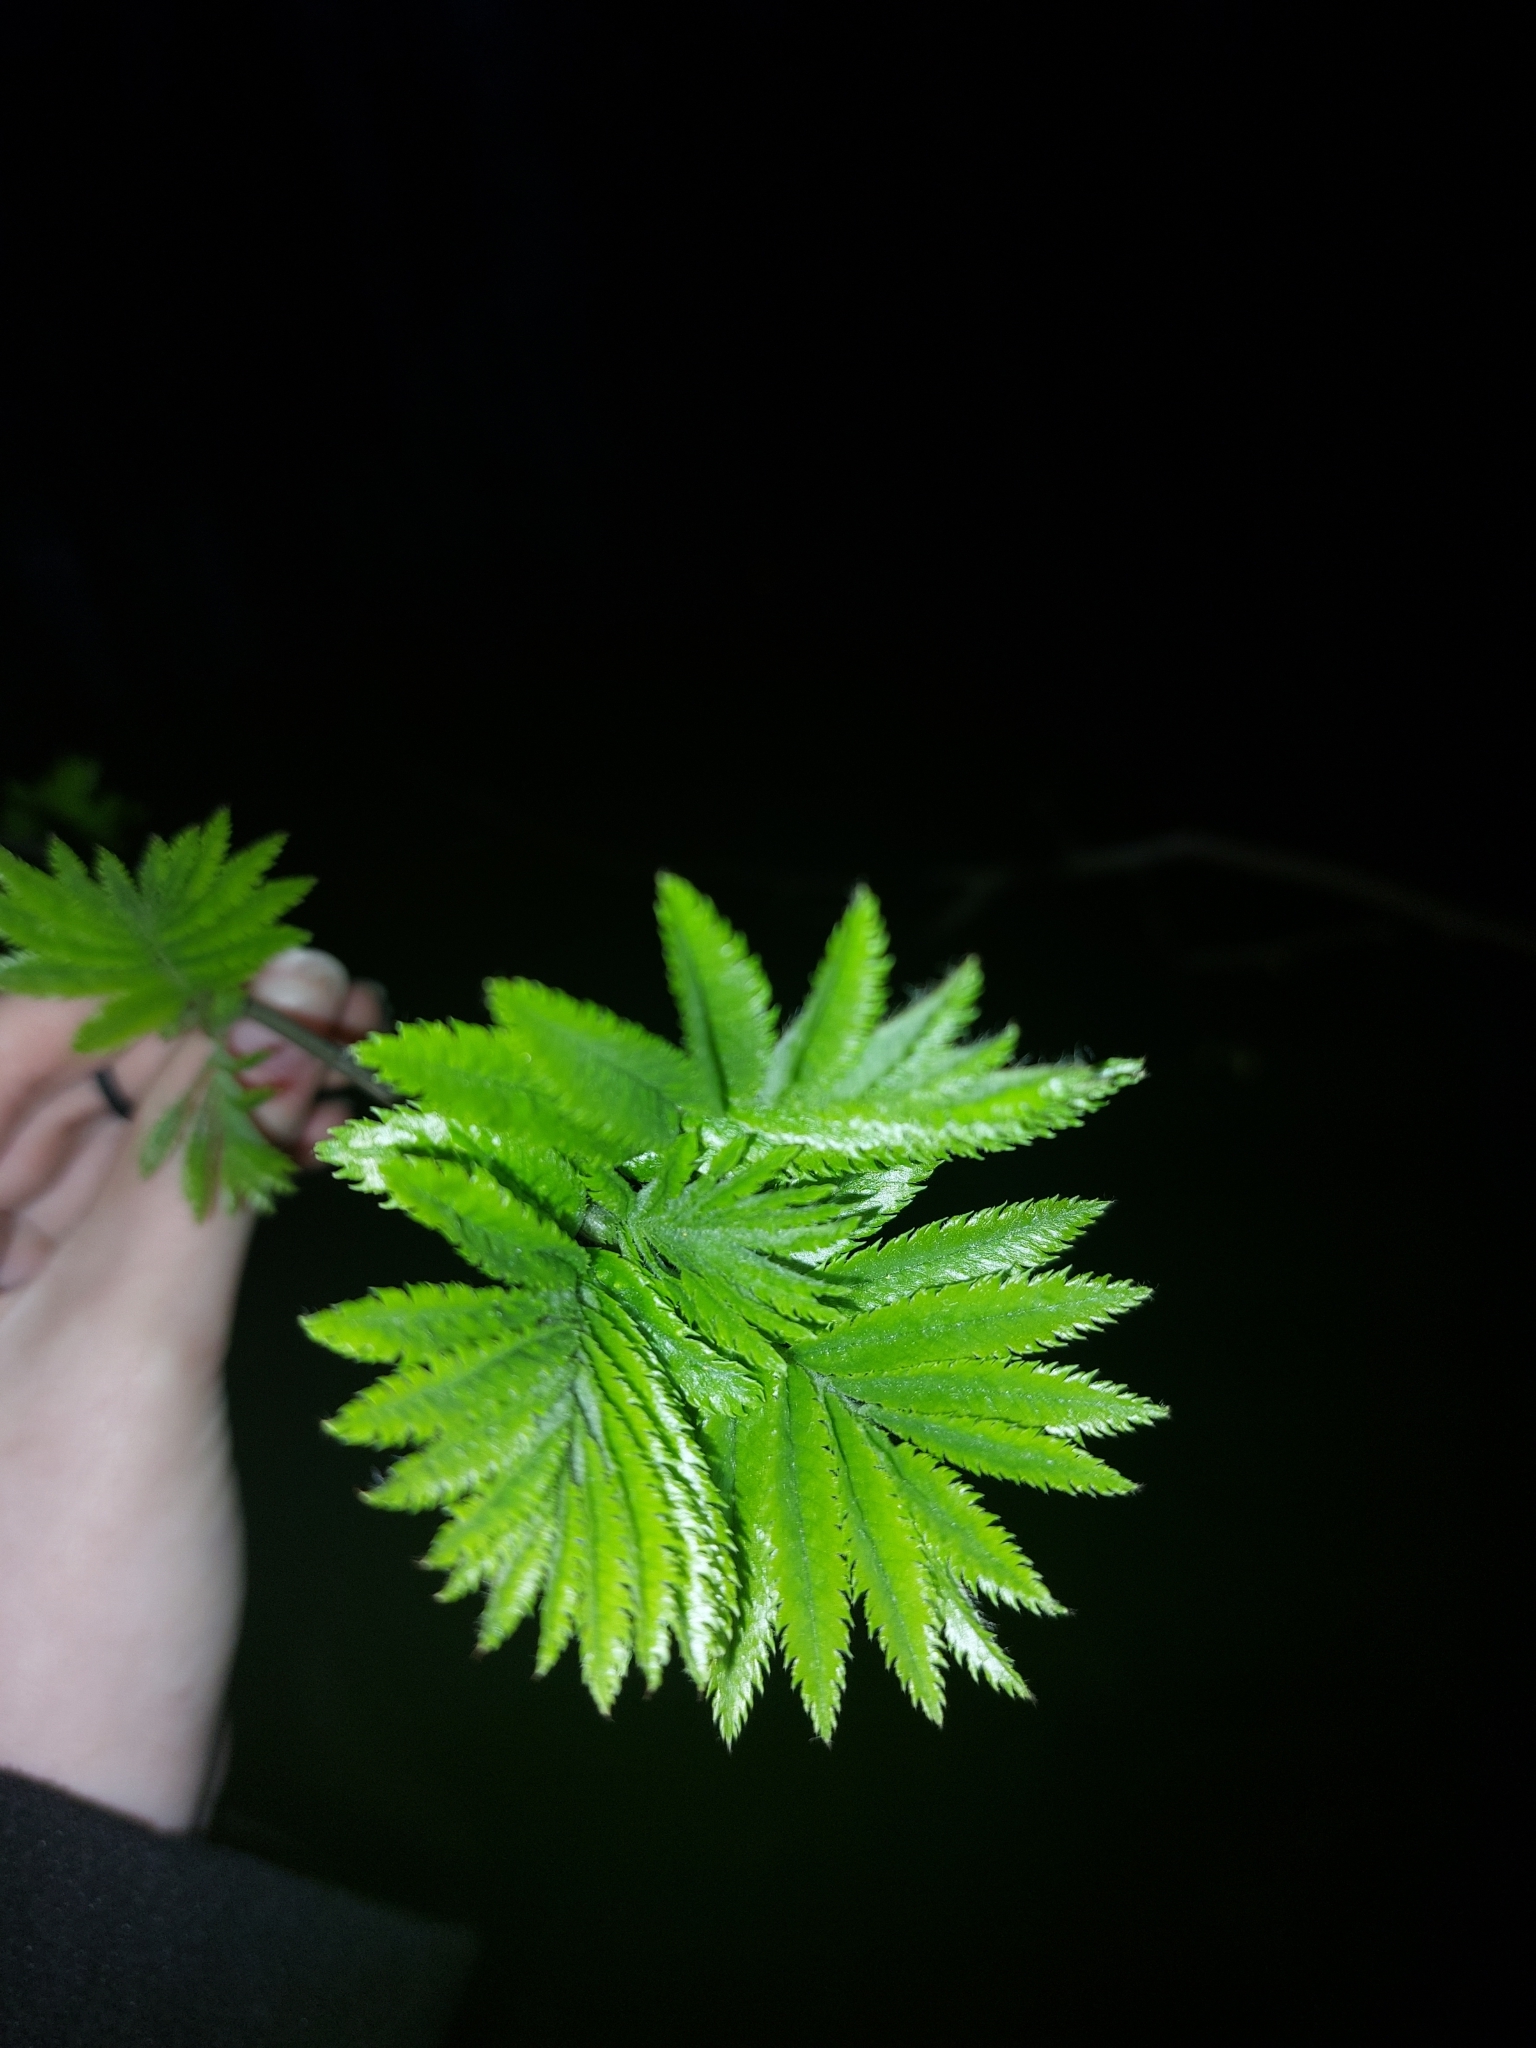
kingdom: Plantae
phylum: Tracheophyta
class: Magnoliopsida
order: Rosales
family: Rosaceae
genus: Sorbus
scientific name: Sorbus aucuparia
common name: Rowan
